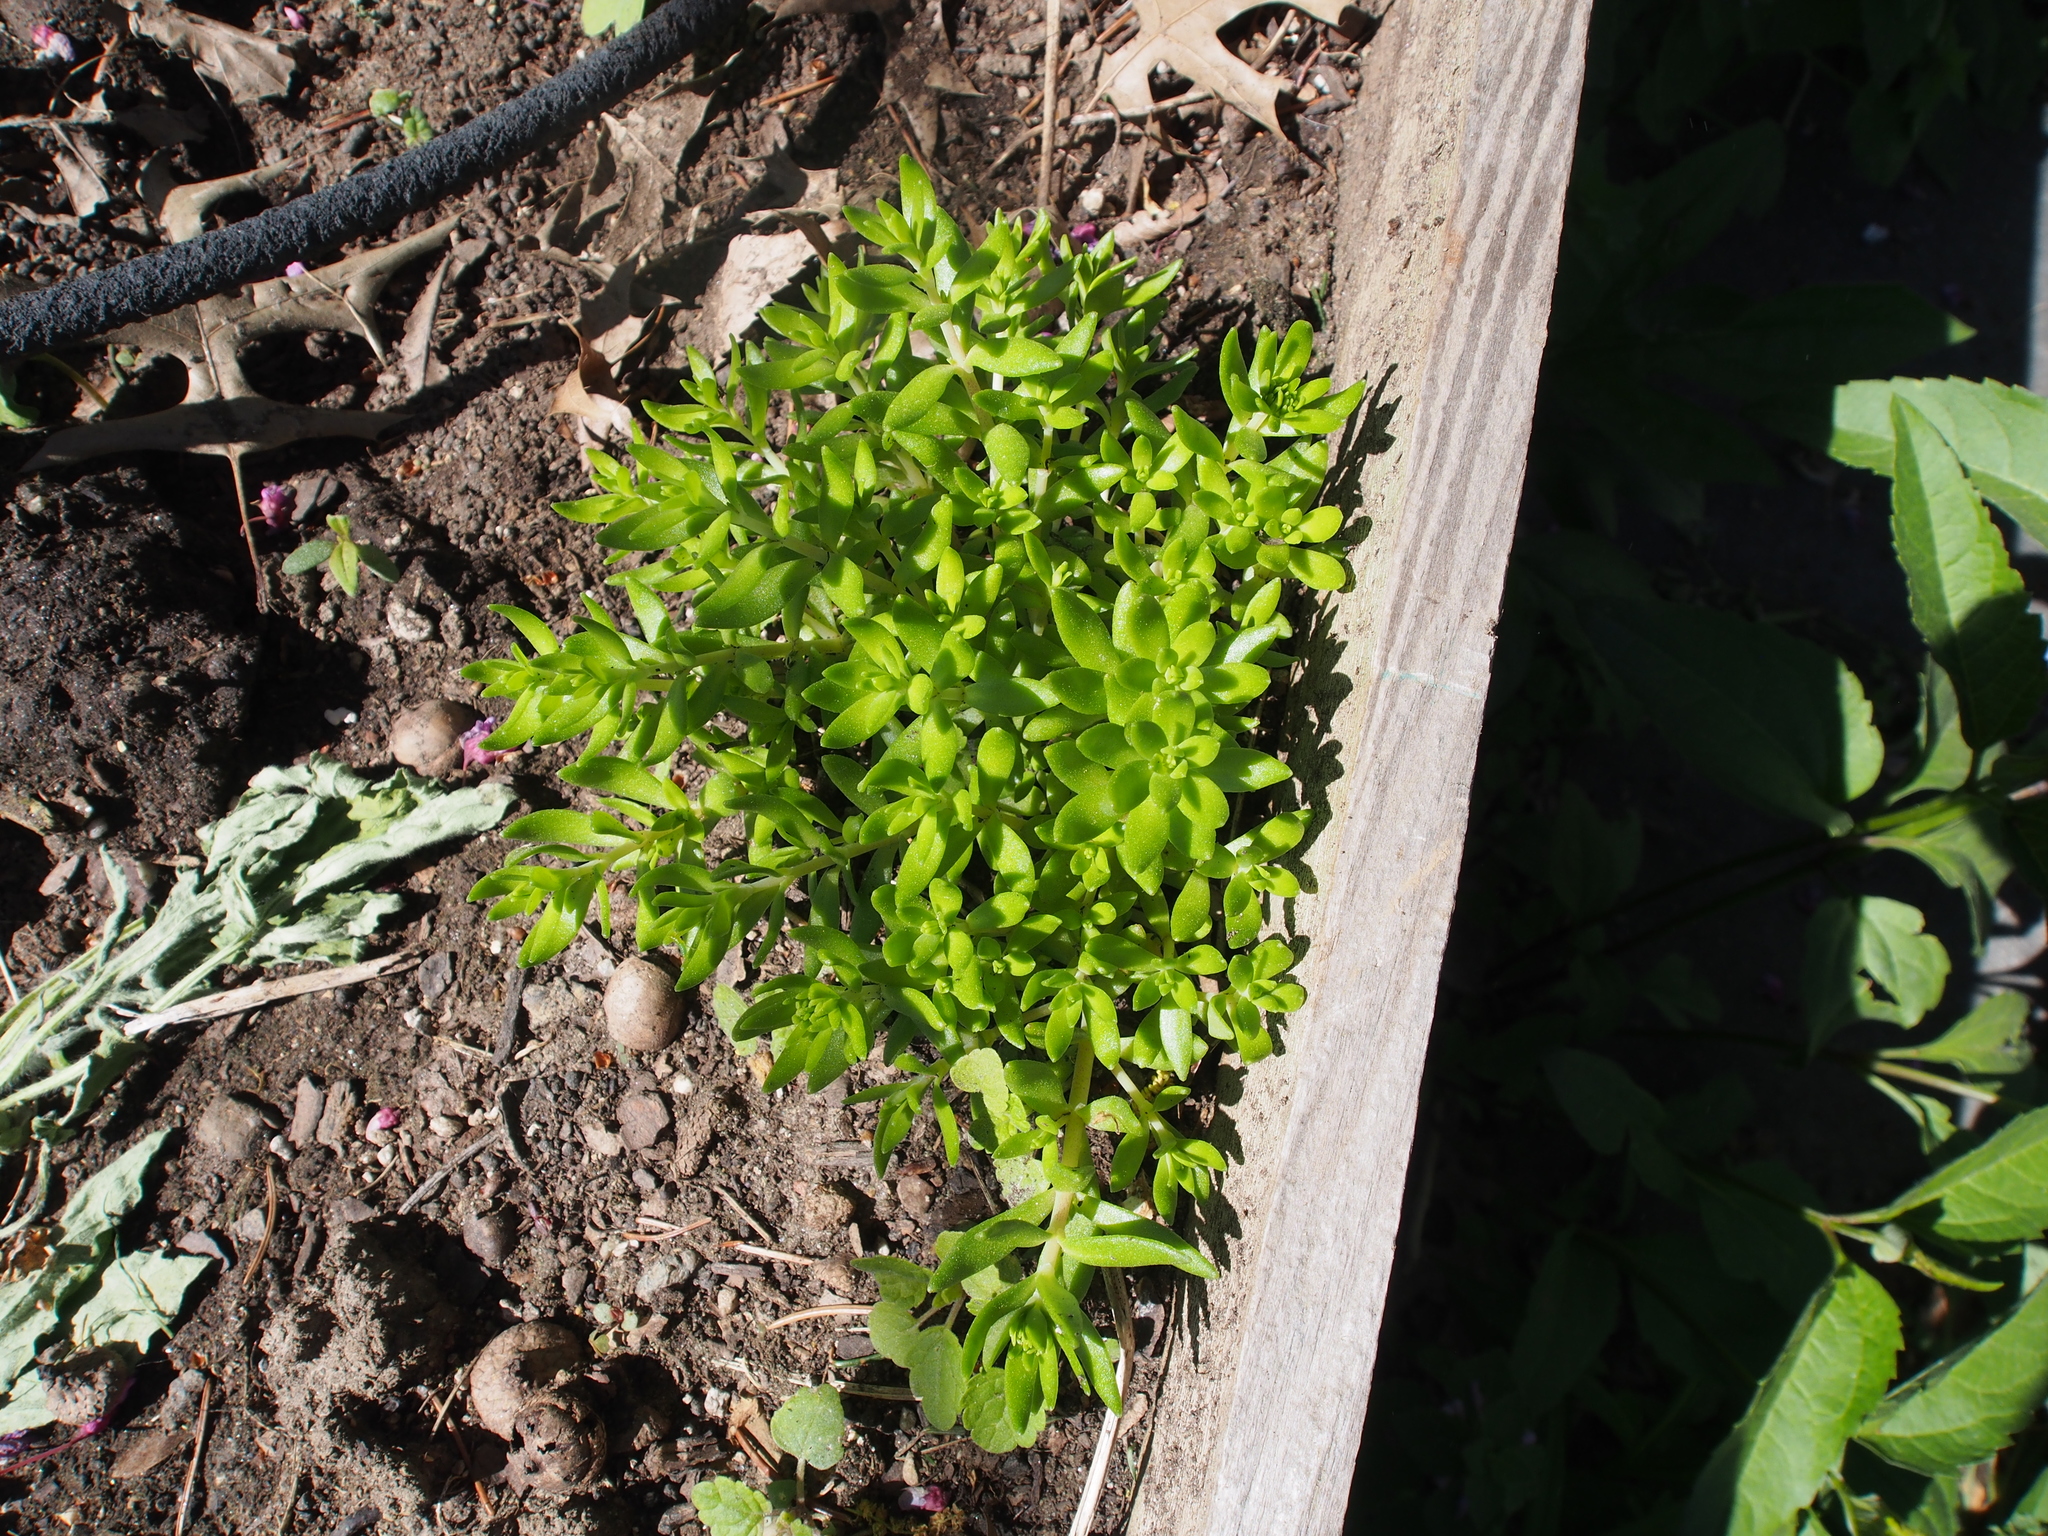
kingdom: Plantae
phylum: Tracheophyta
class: Magnoliopsida
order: Saxifragales
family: Crassulaceae
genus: Sedum
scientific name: Sedum sarmentosum
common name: Stringy stonecrop
